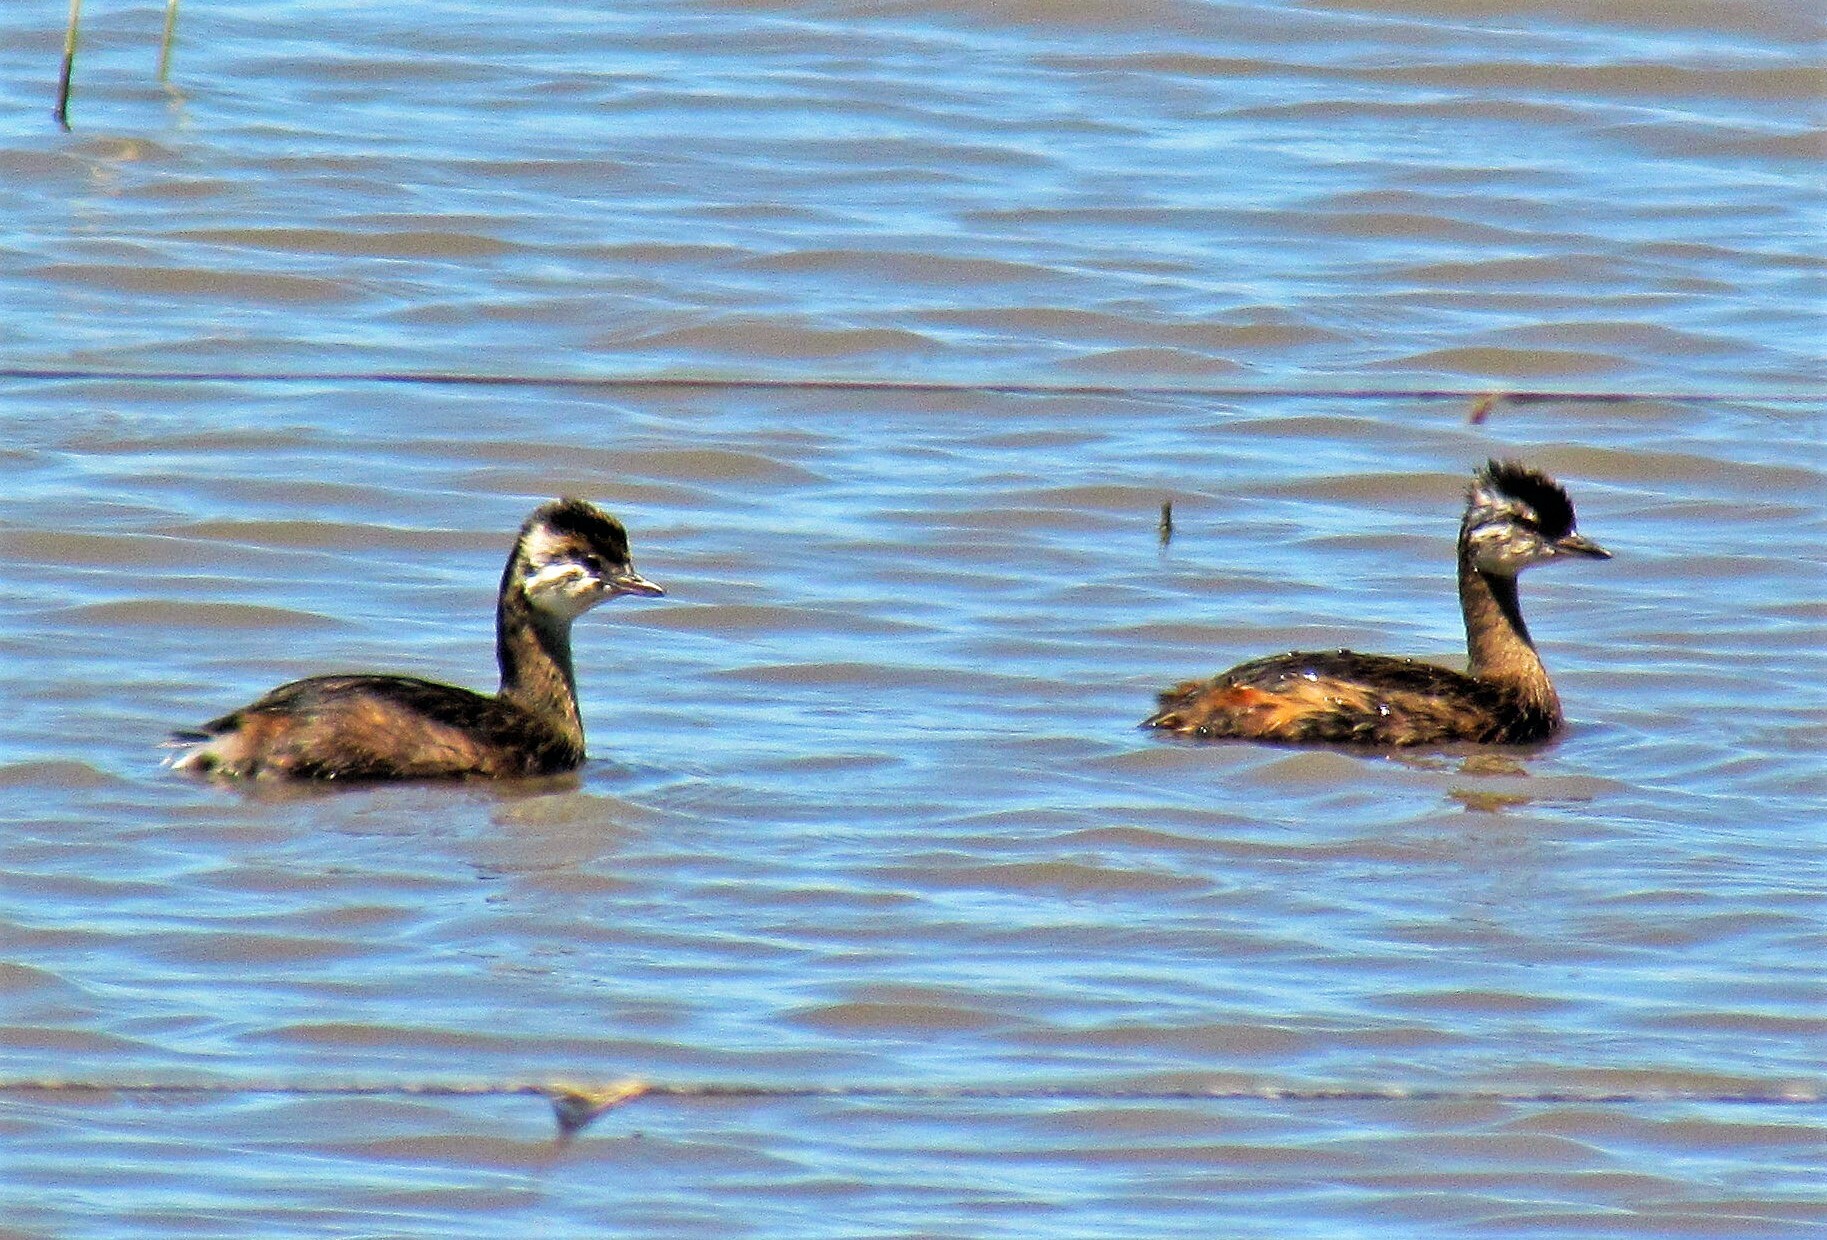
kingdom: Animalia
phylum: Chordata
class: Aves
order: Podicipediformes
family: Podicipedidae
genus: Rollandia
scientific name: Rollandia rolland
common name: White-tufted grebe
